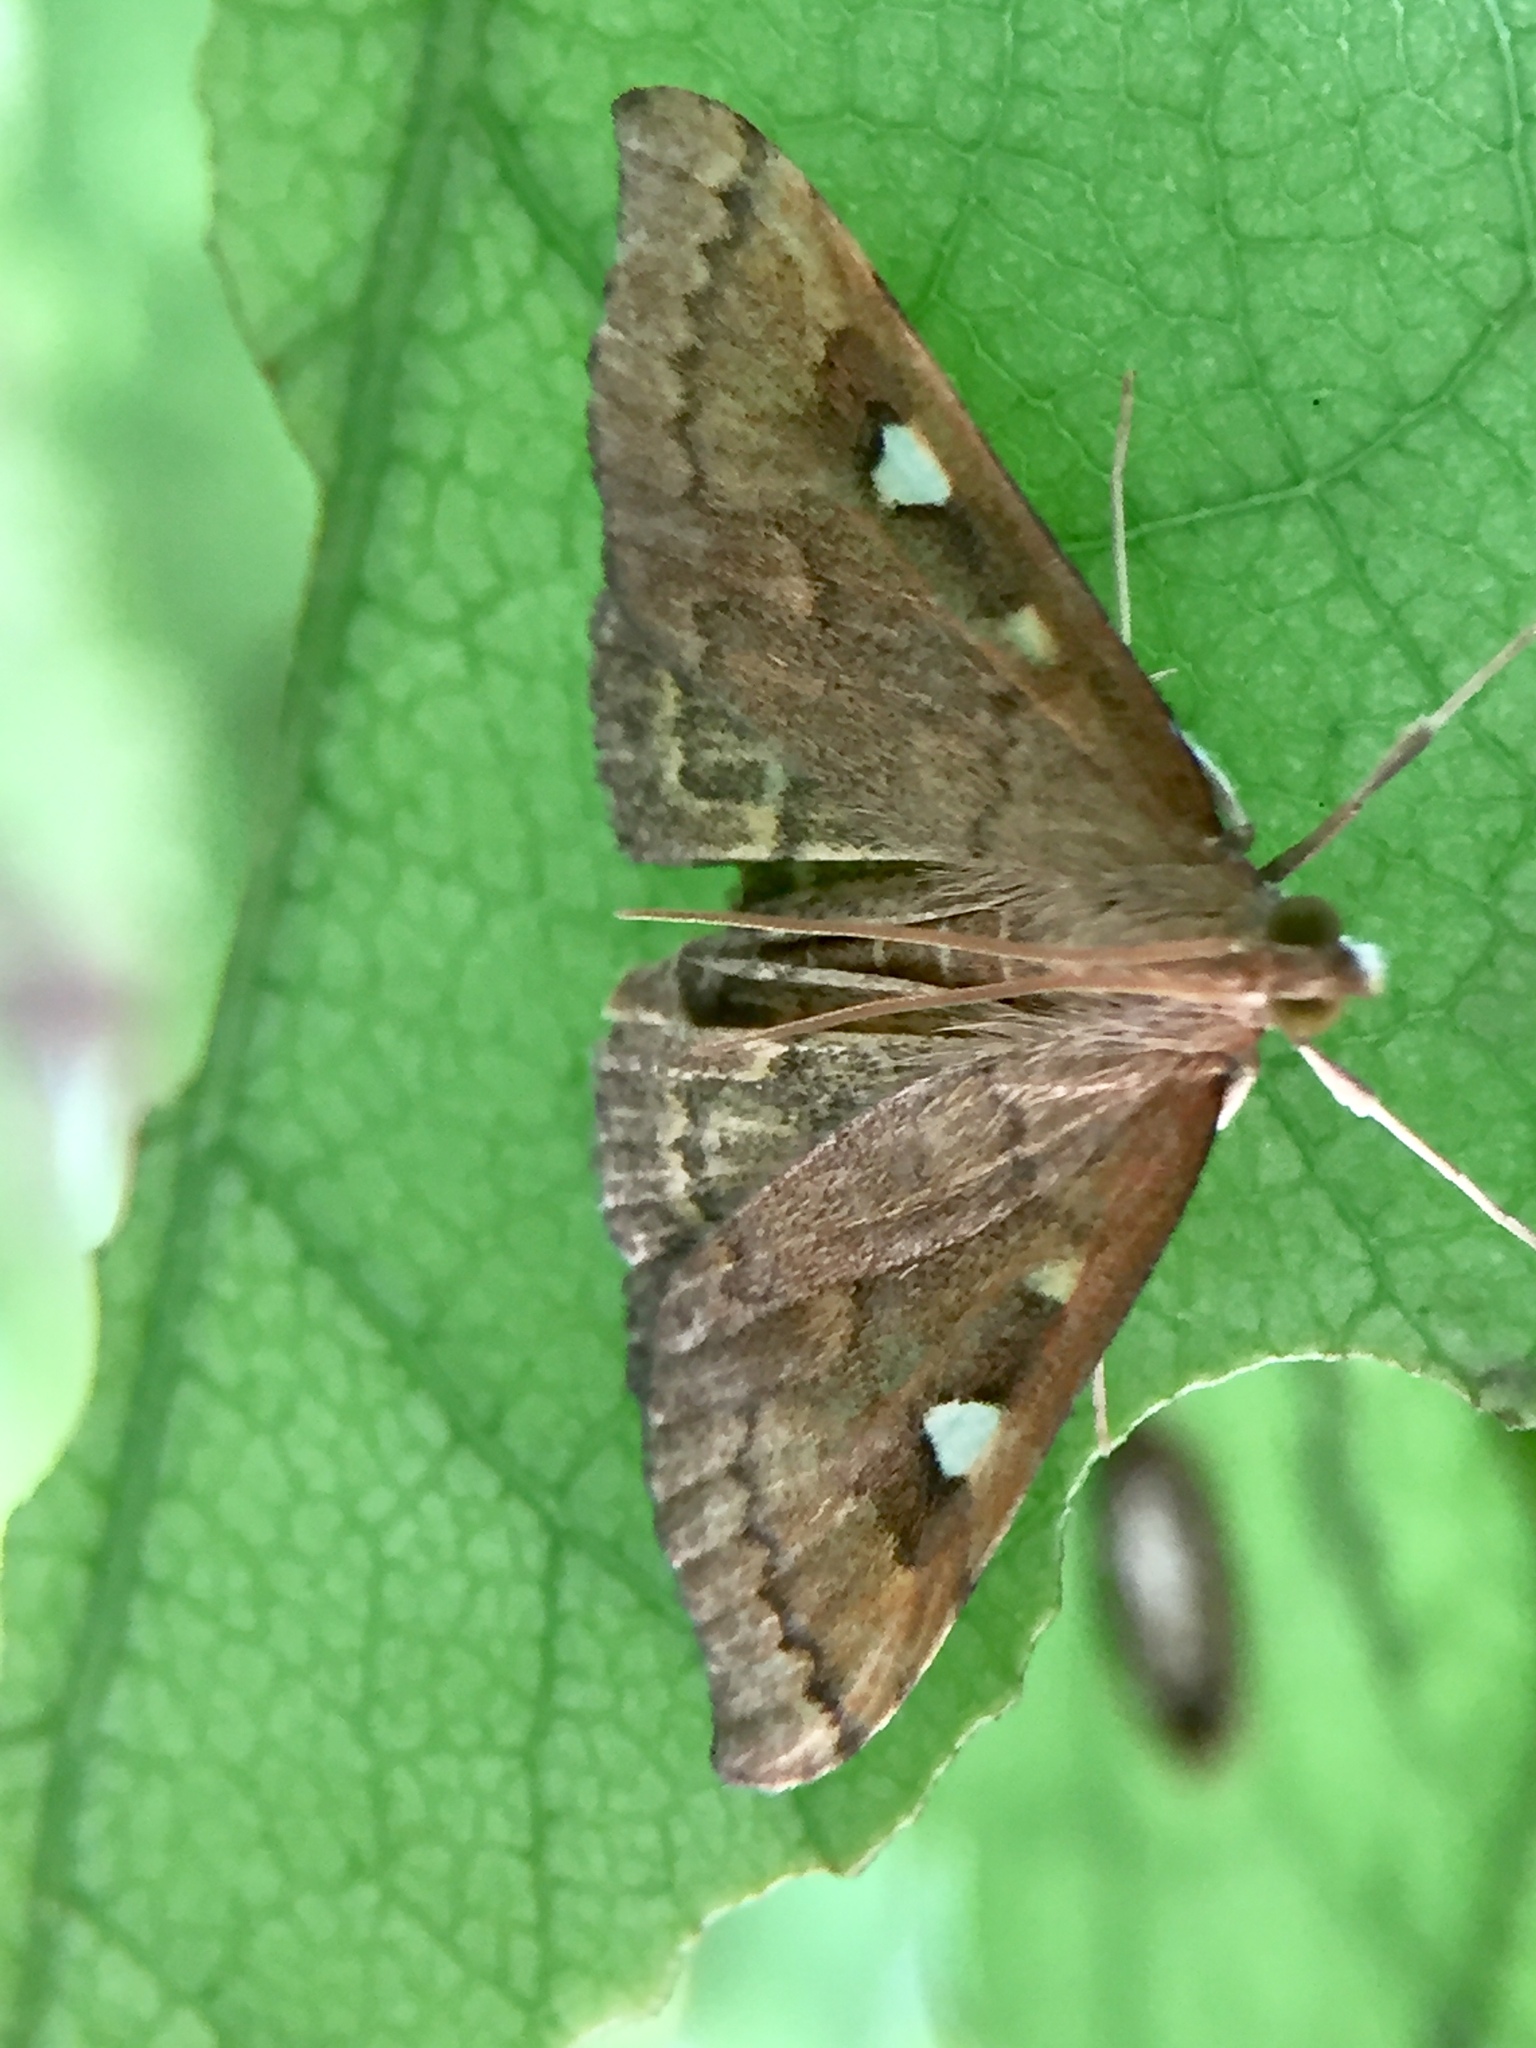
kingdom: Animalia
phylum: Arthropoda
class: Insecta
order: Lepidoptera
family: Crambidae
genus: Udea
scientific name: Udea Mnesictena marmarina
